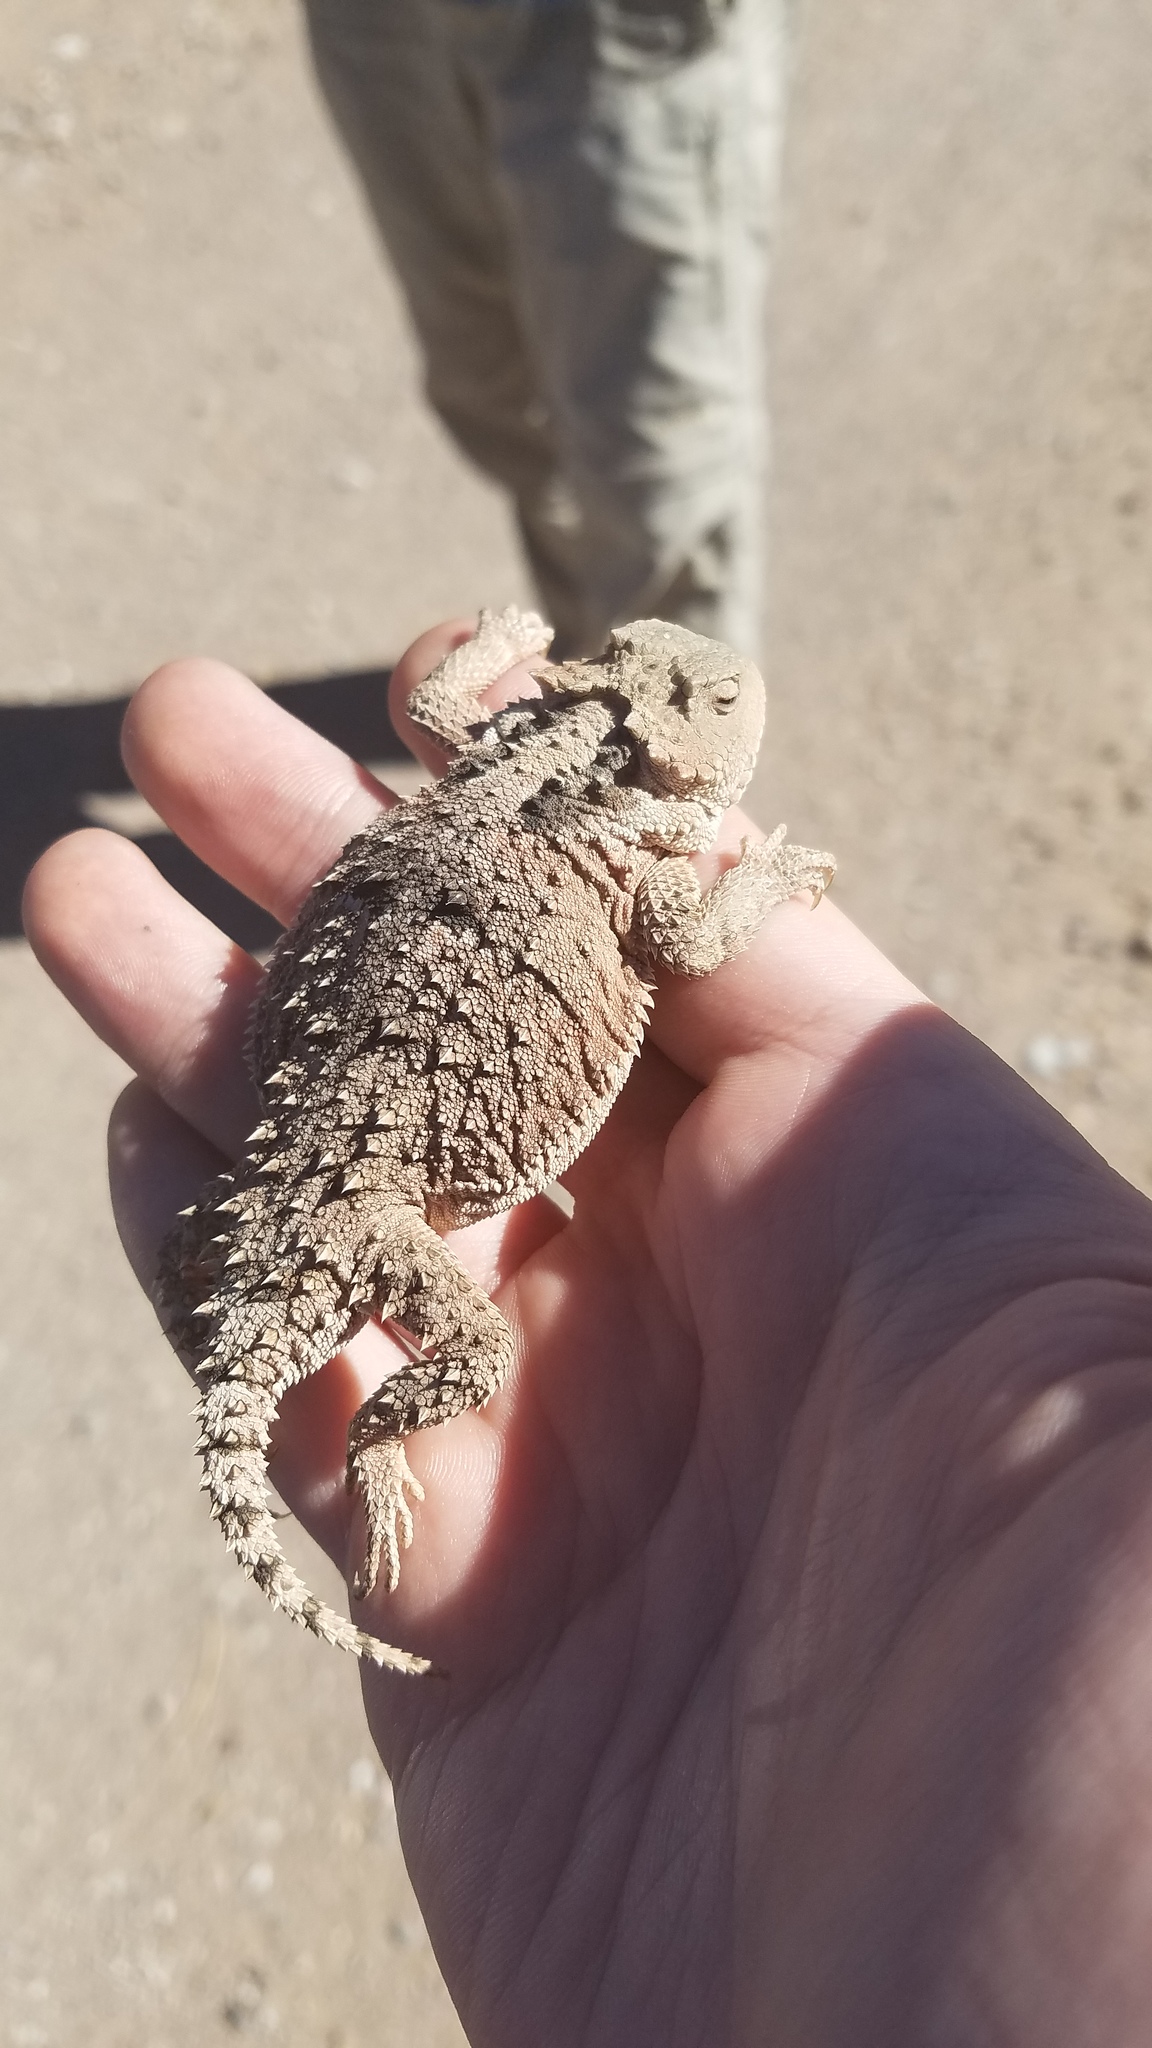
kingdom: Animalia
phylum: Chordata
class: Squamata
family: Phrynosomatidae
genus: Phrynosoma
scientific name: Phrynosoma hernandesi
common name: Greater short-horned lizard
